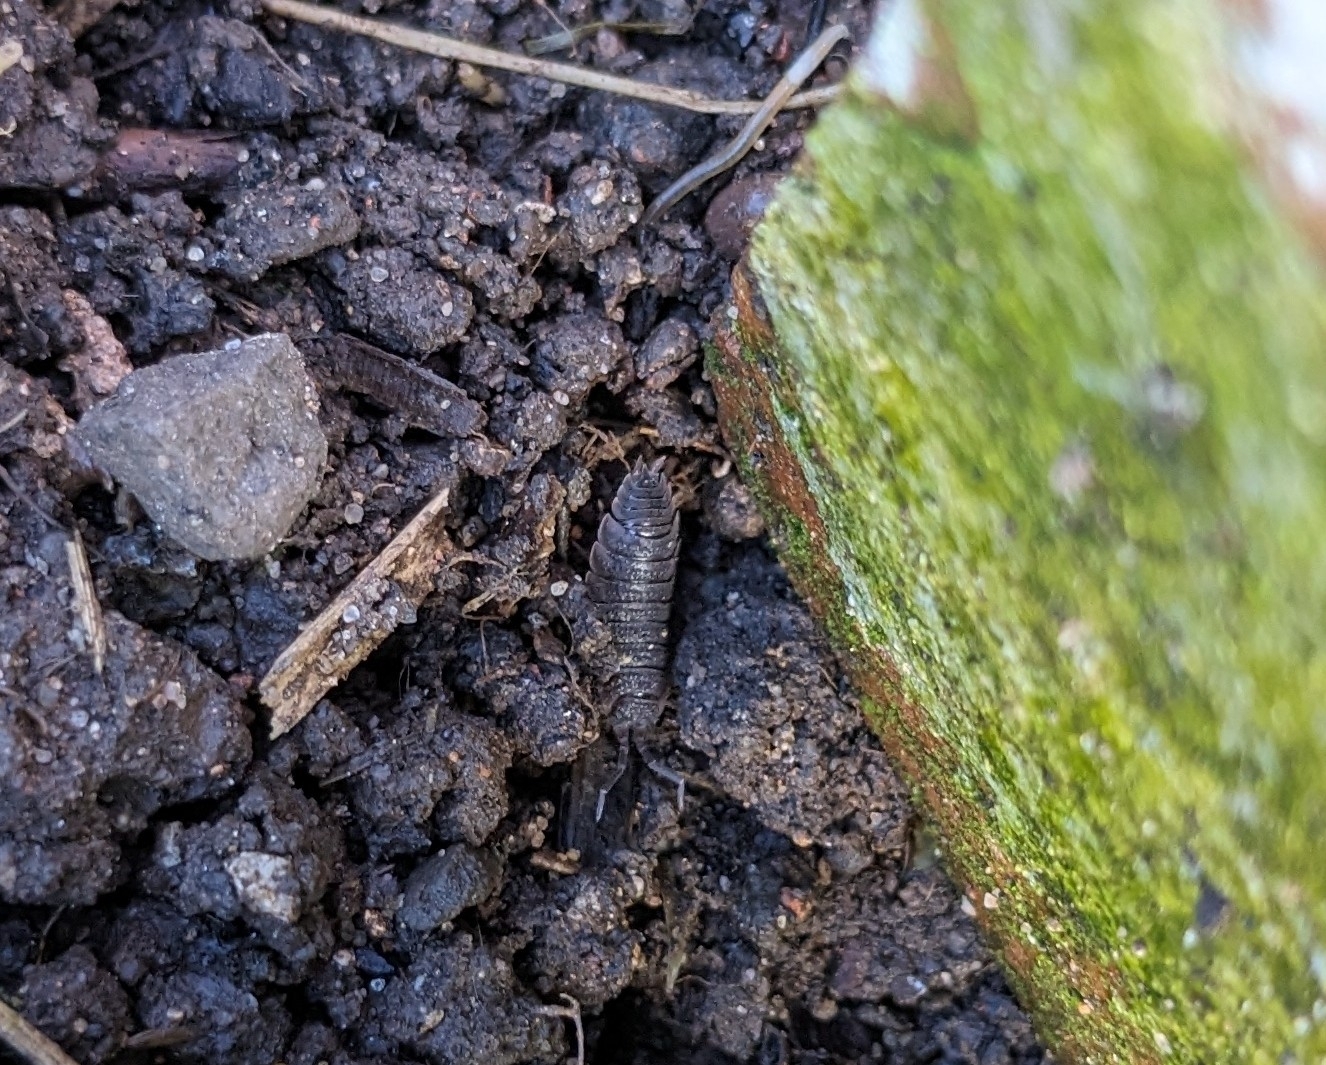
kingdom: Animalia
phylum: Arthropoda
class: Malacostraca
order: Isopoda
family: Porcellionidae
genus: Porcellio
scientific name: Porcellio scaber
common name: Common rough woodlouse
